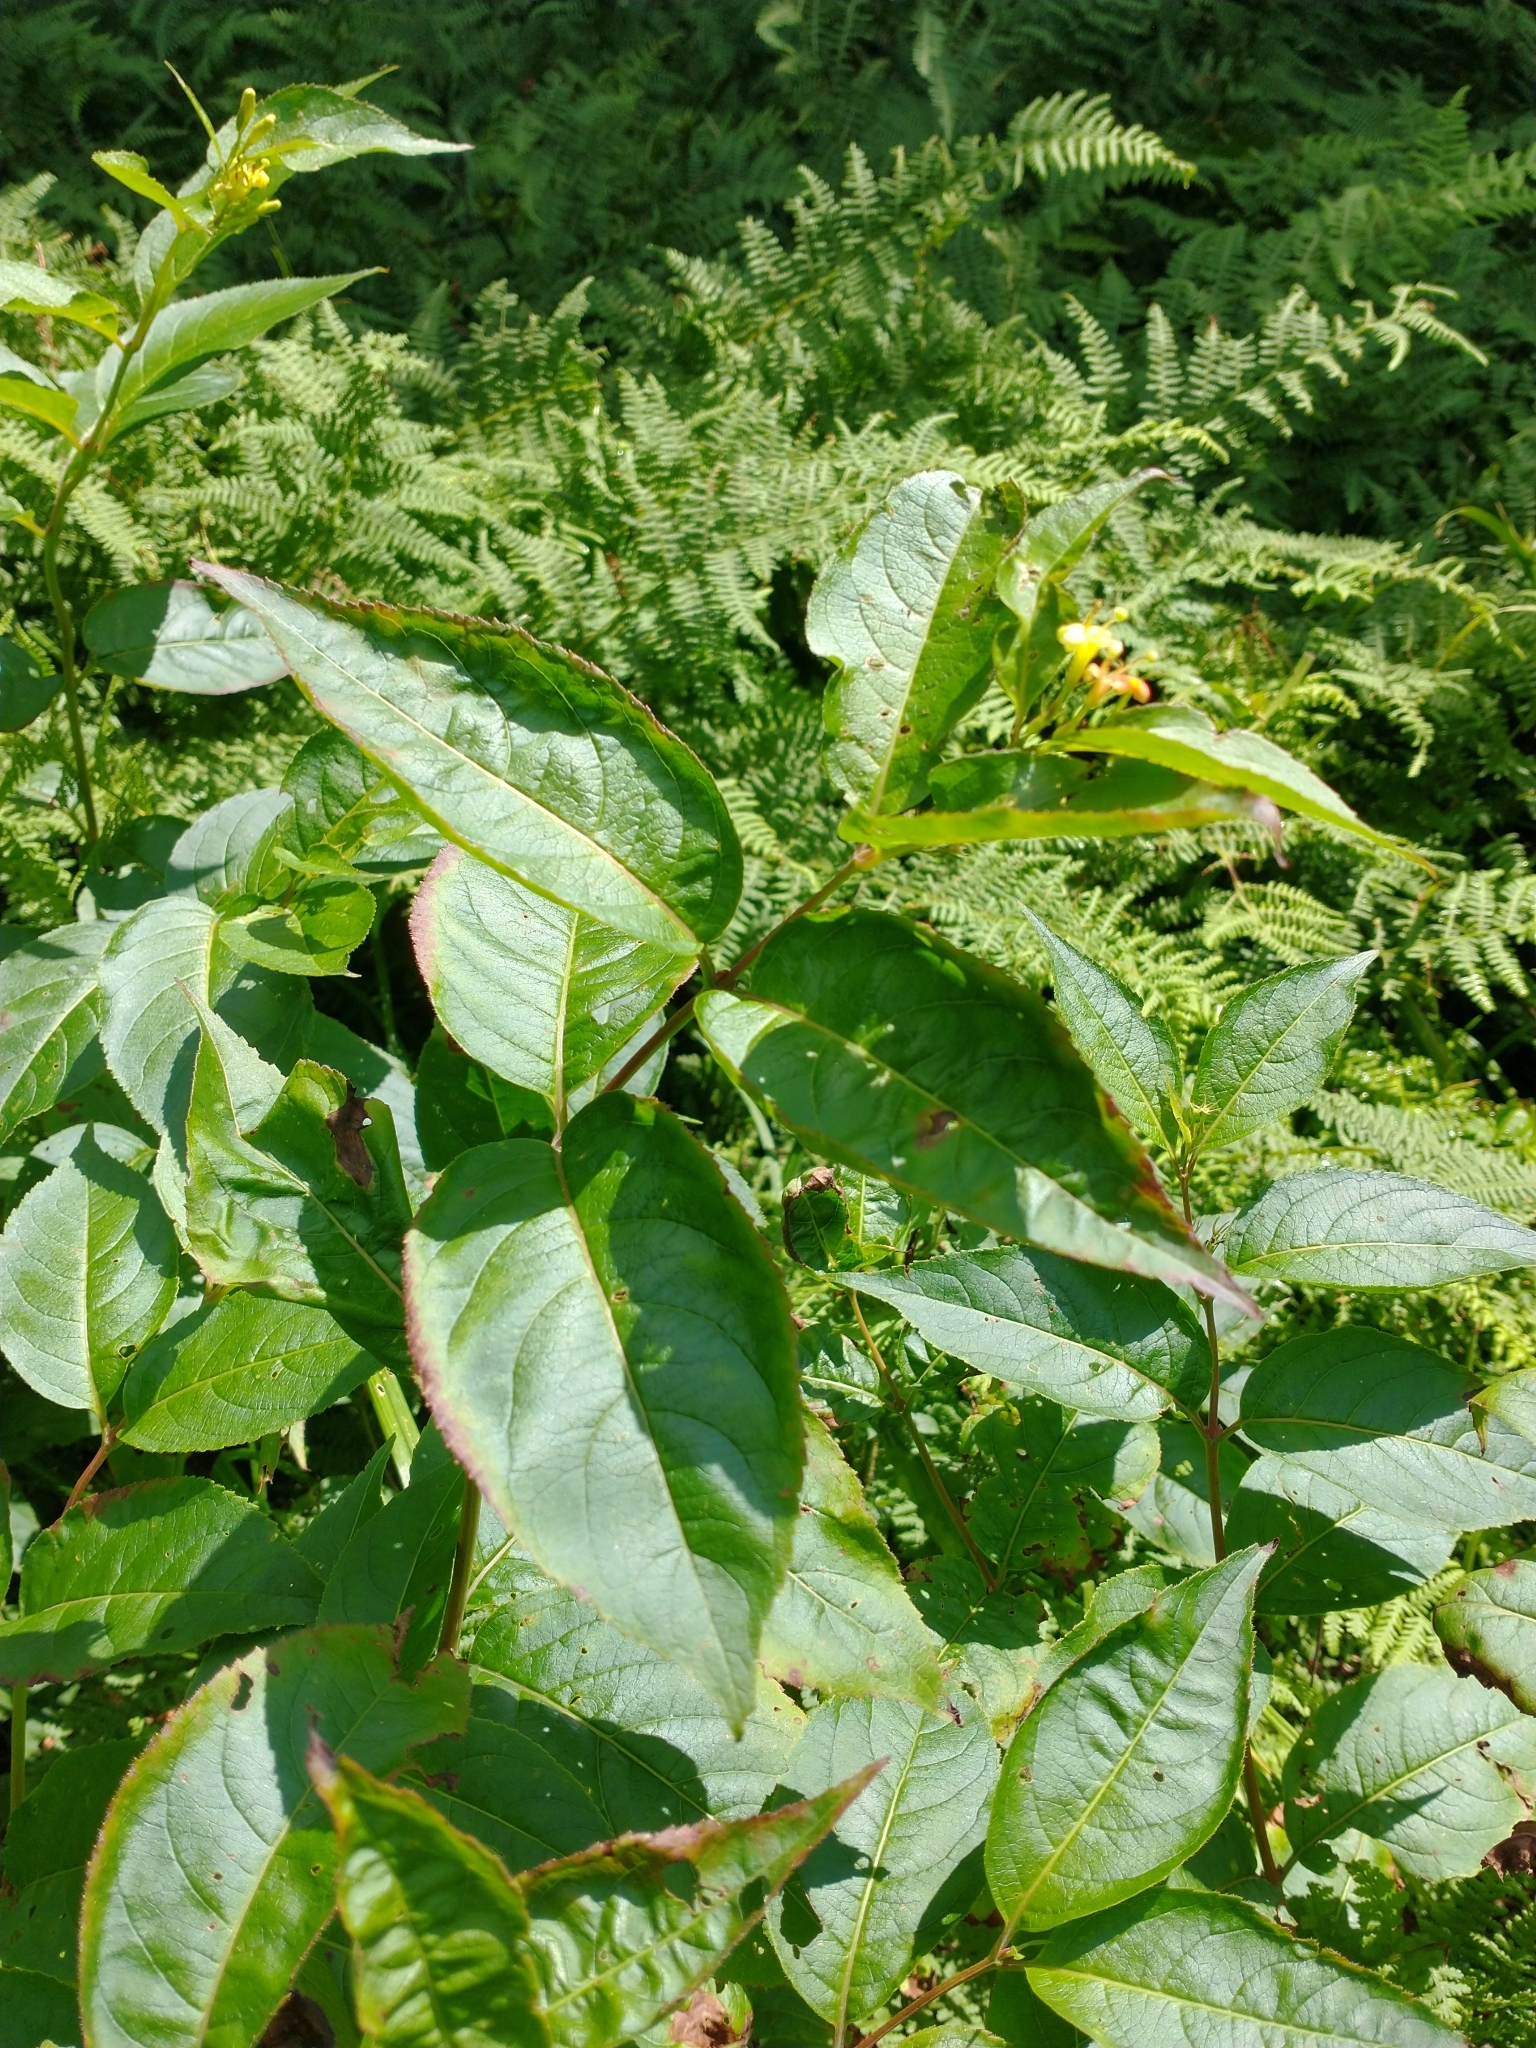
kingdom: Plantae
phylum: Tracheophyta
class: Magnoliopsida
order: Dipsacales
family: Caprifoliaceae
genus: Diervilla
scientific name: Diervilla lonicera
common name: Bush-honeysuckle
